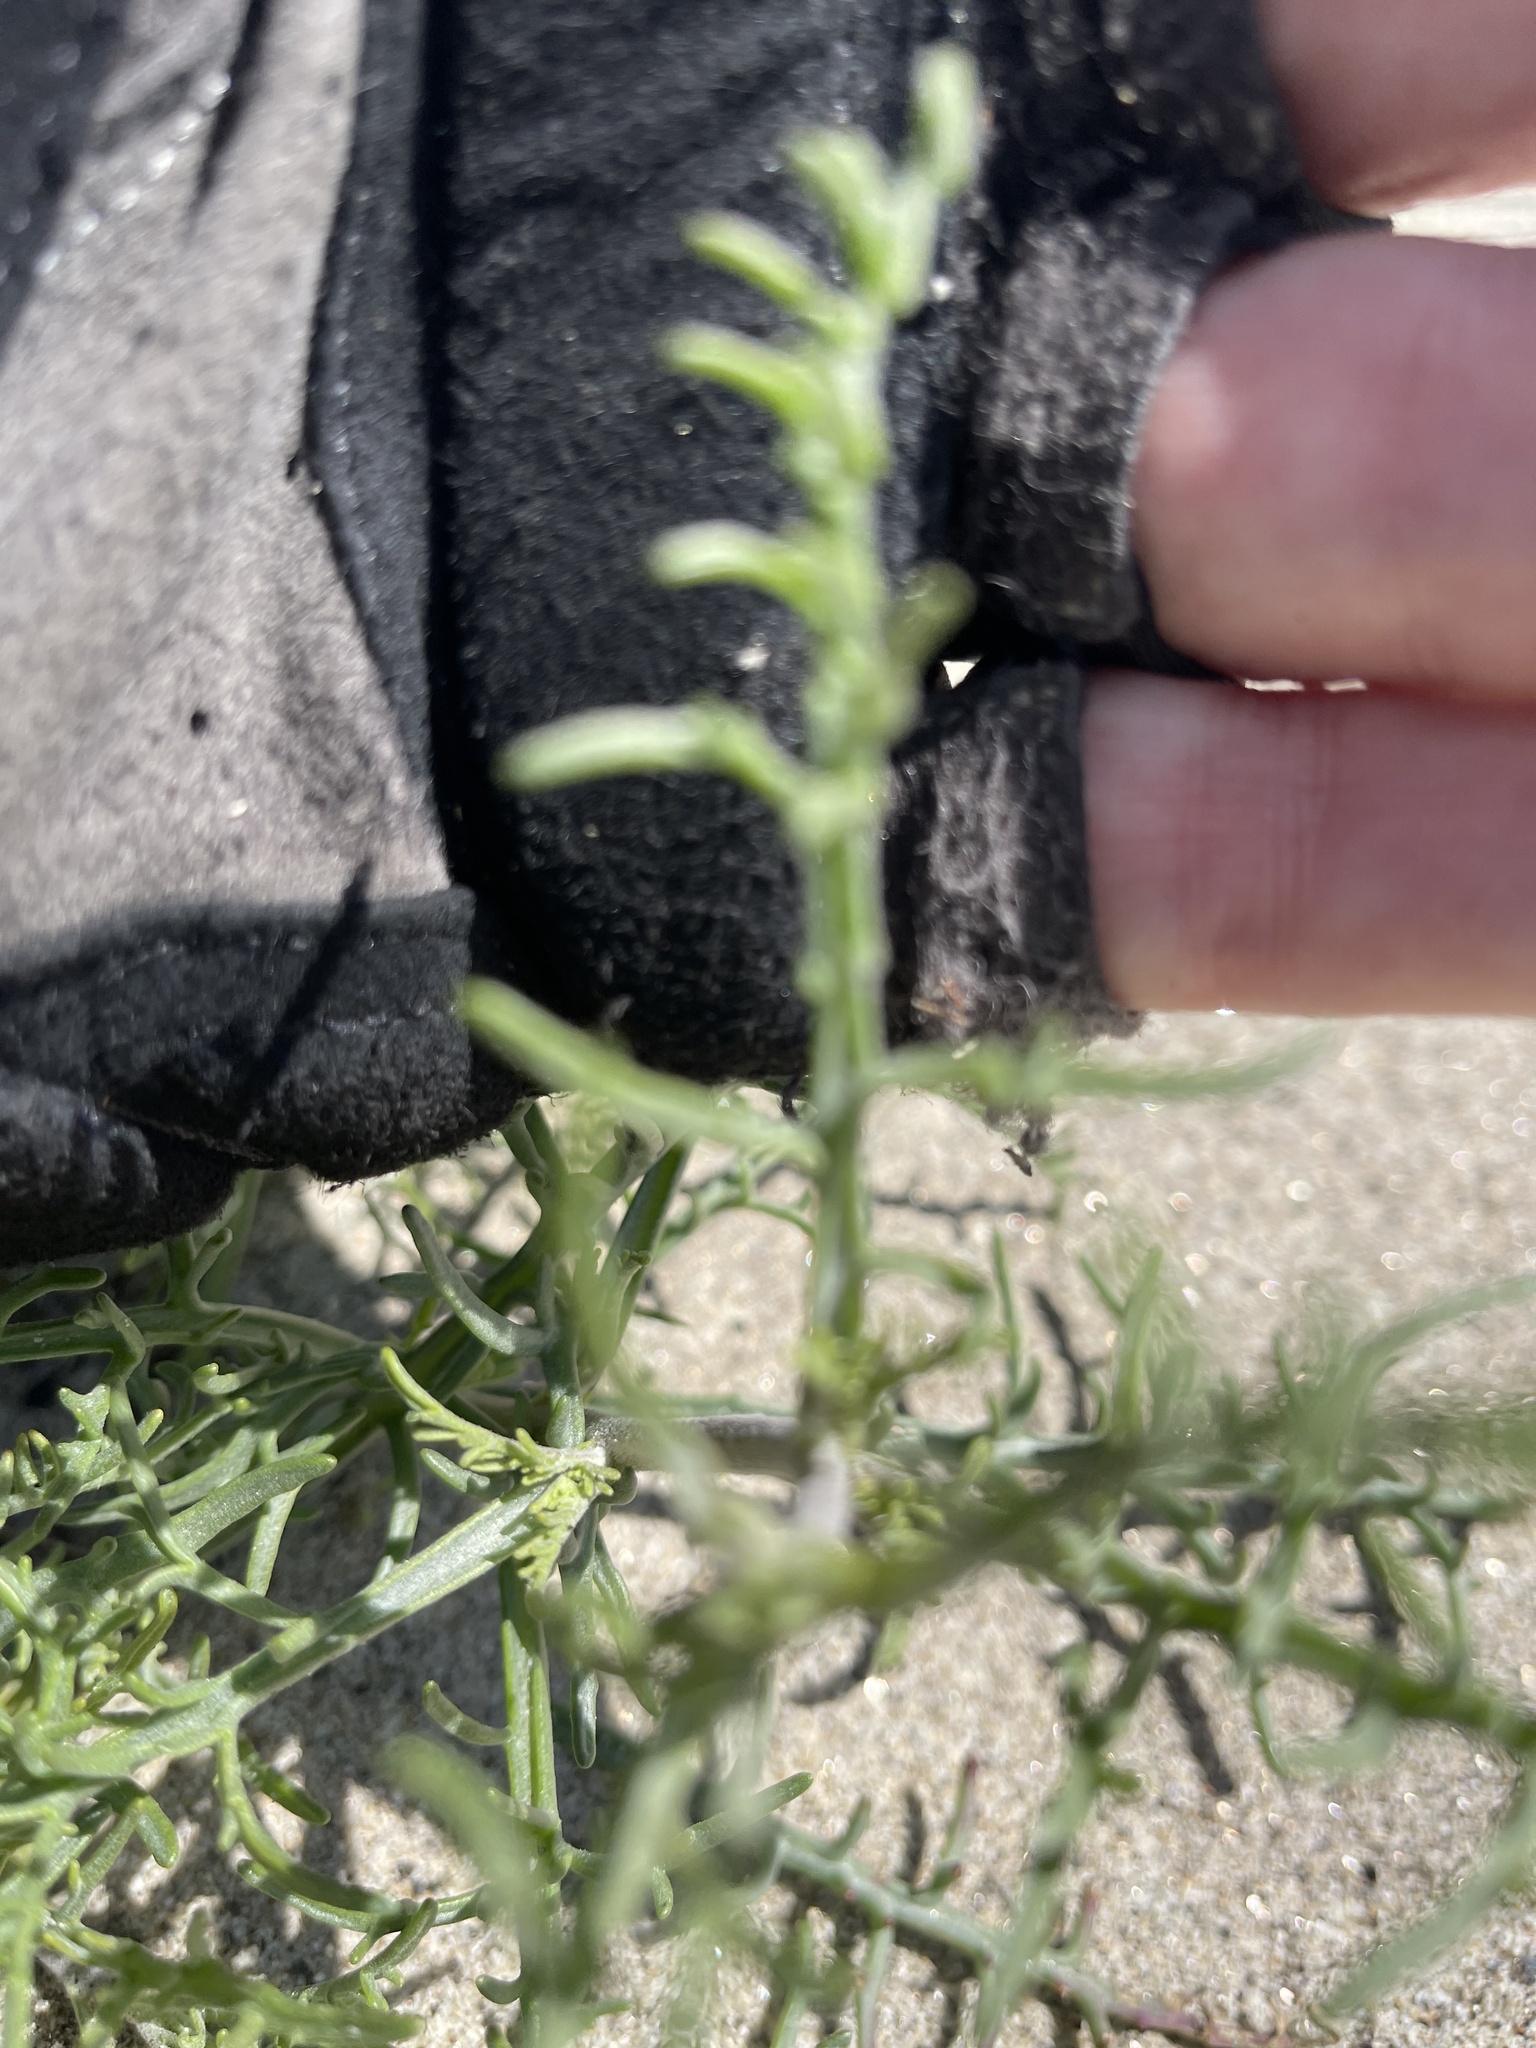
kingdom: Plantae
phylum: Tracheophyta
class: Magnoliopsida
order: Asterales
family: Asteraceae
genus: Chaenactis
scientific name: Chaenactis stevioides
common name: Desert pincushion
